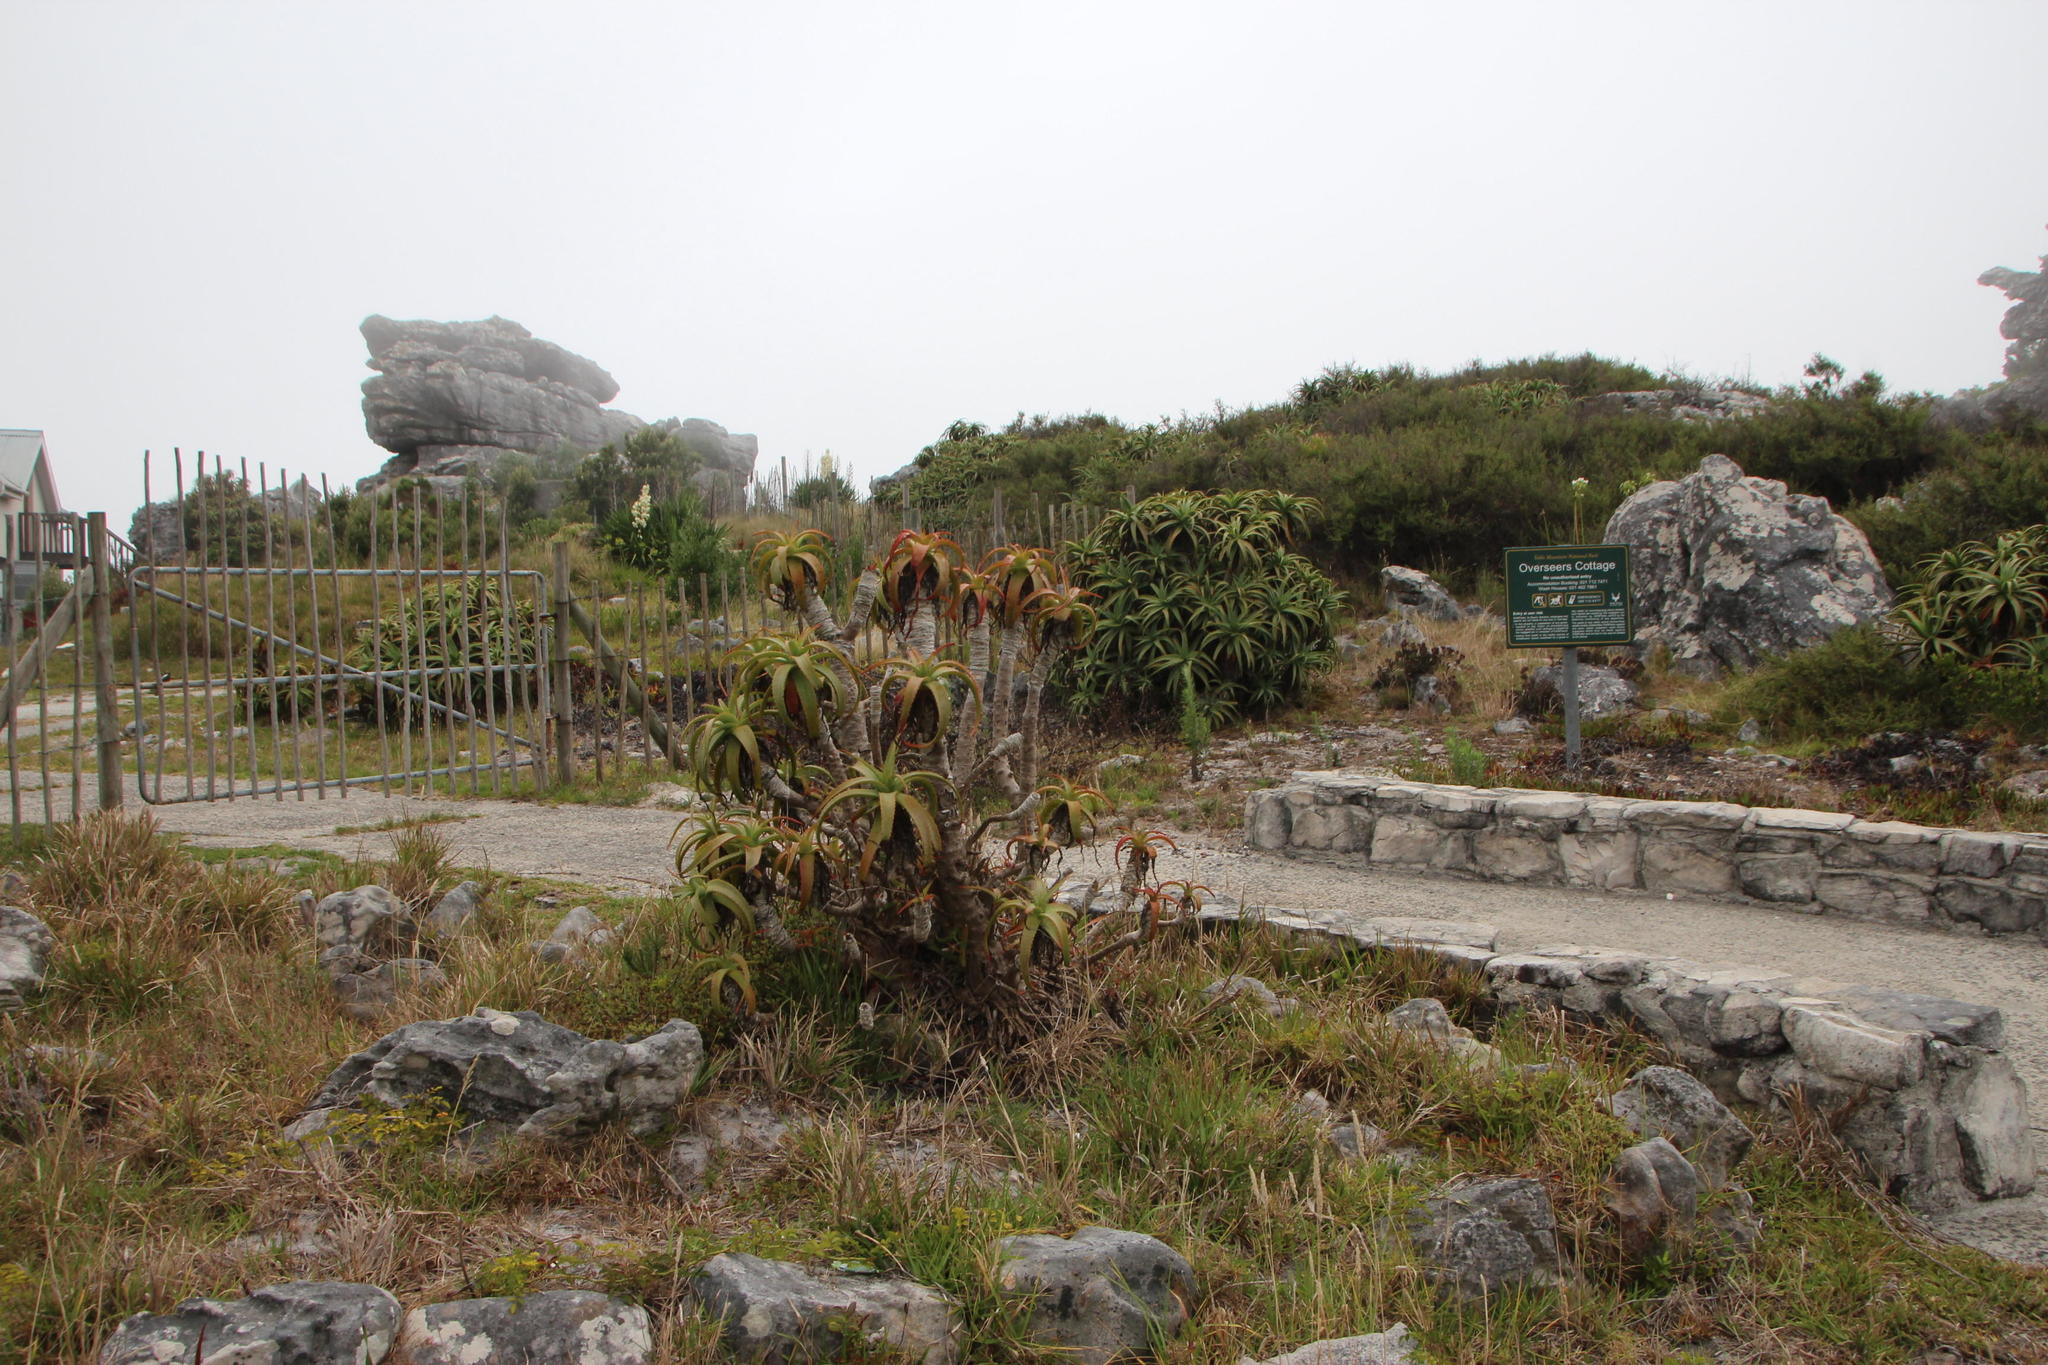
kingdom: Plantae
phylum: Tracheophyta
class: Liliopsida
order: Asparagales
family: Asphodelaceae
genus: Aloe
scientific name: Aloe arborescens
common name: Candelabra aloe
